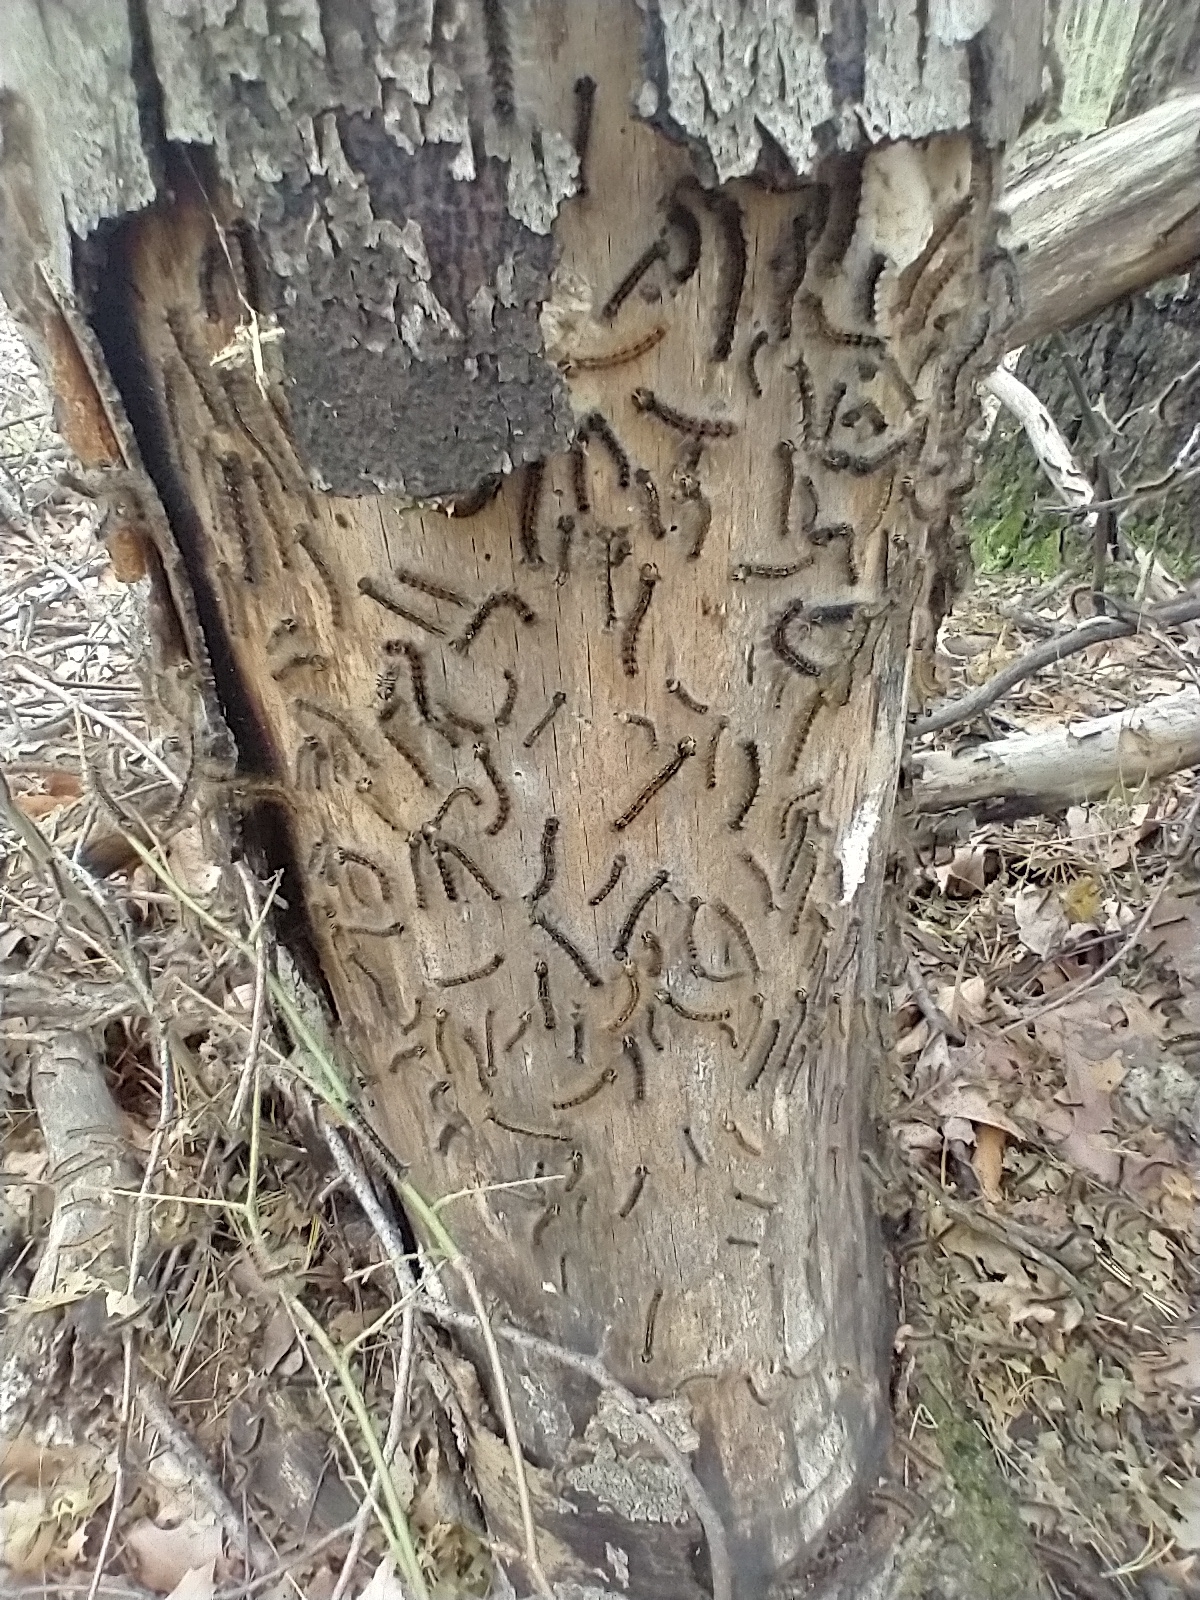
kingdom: Animalia
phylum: Arthropoda
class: Insecta
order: Lepidoptera
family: Erebidae
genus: Lymantria
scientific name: Lymantria dispar
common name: Gypsy moth
